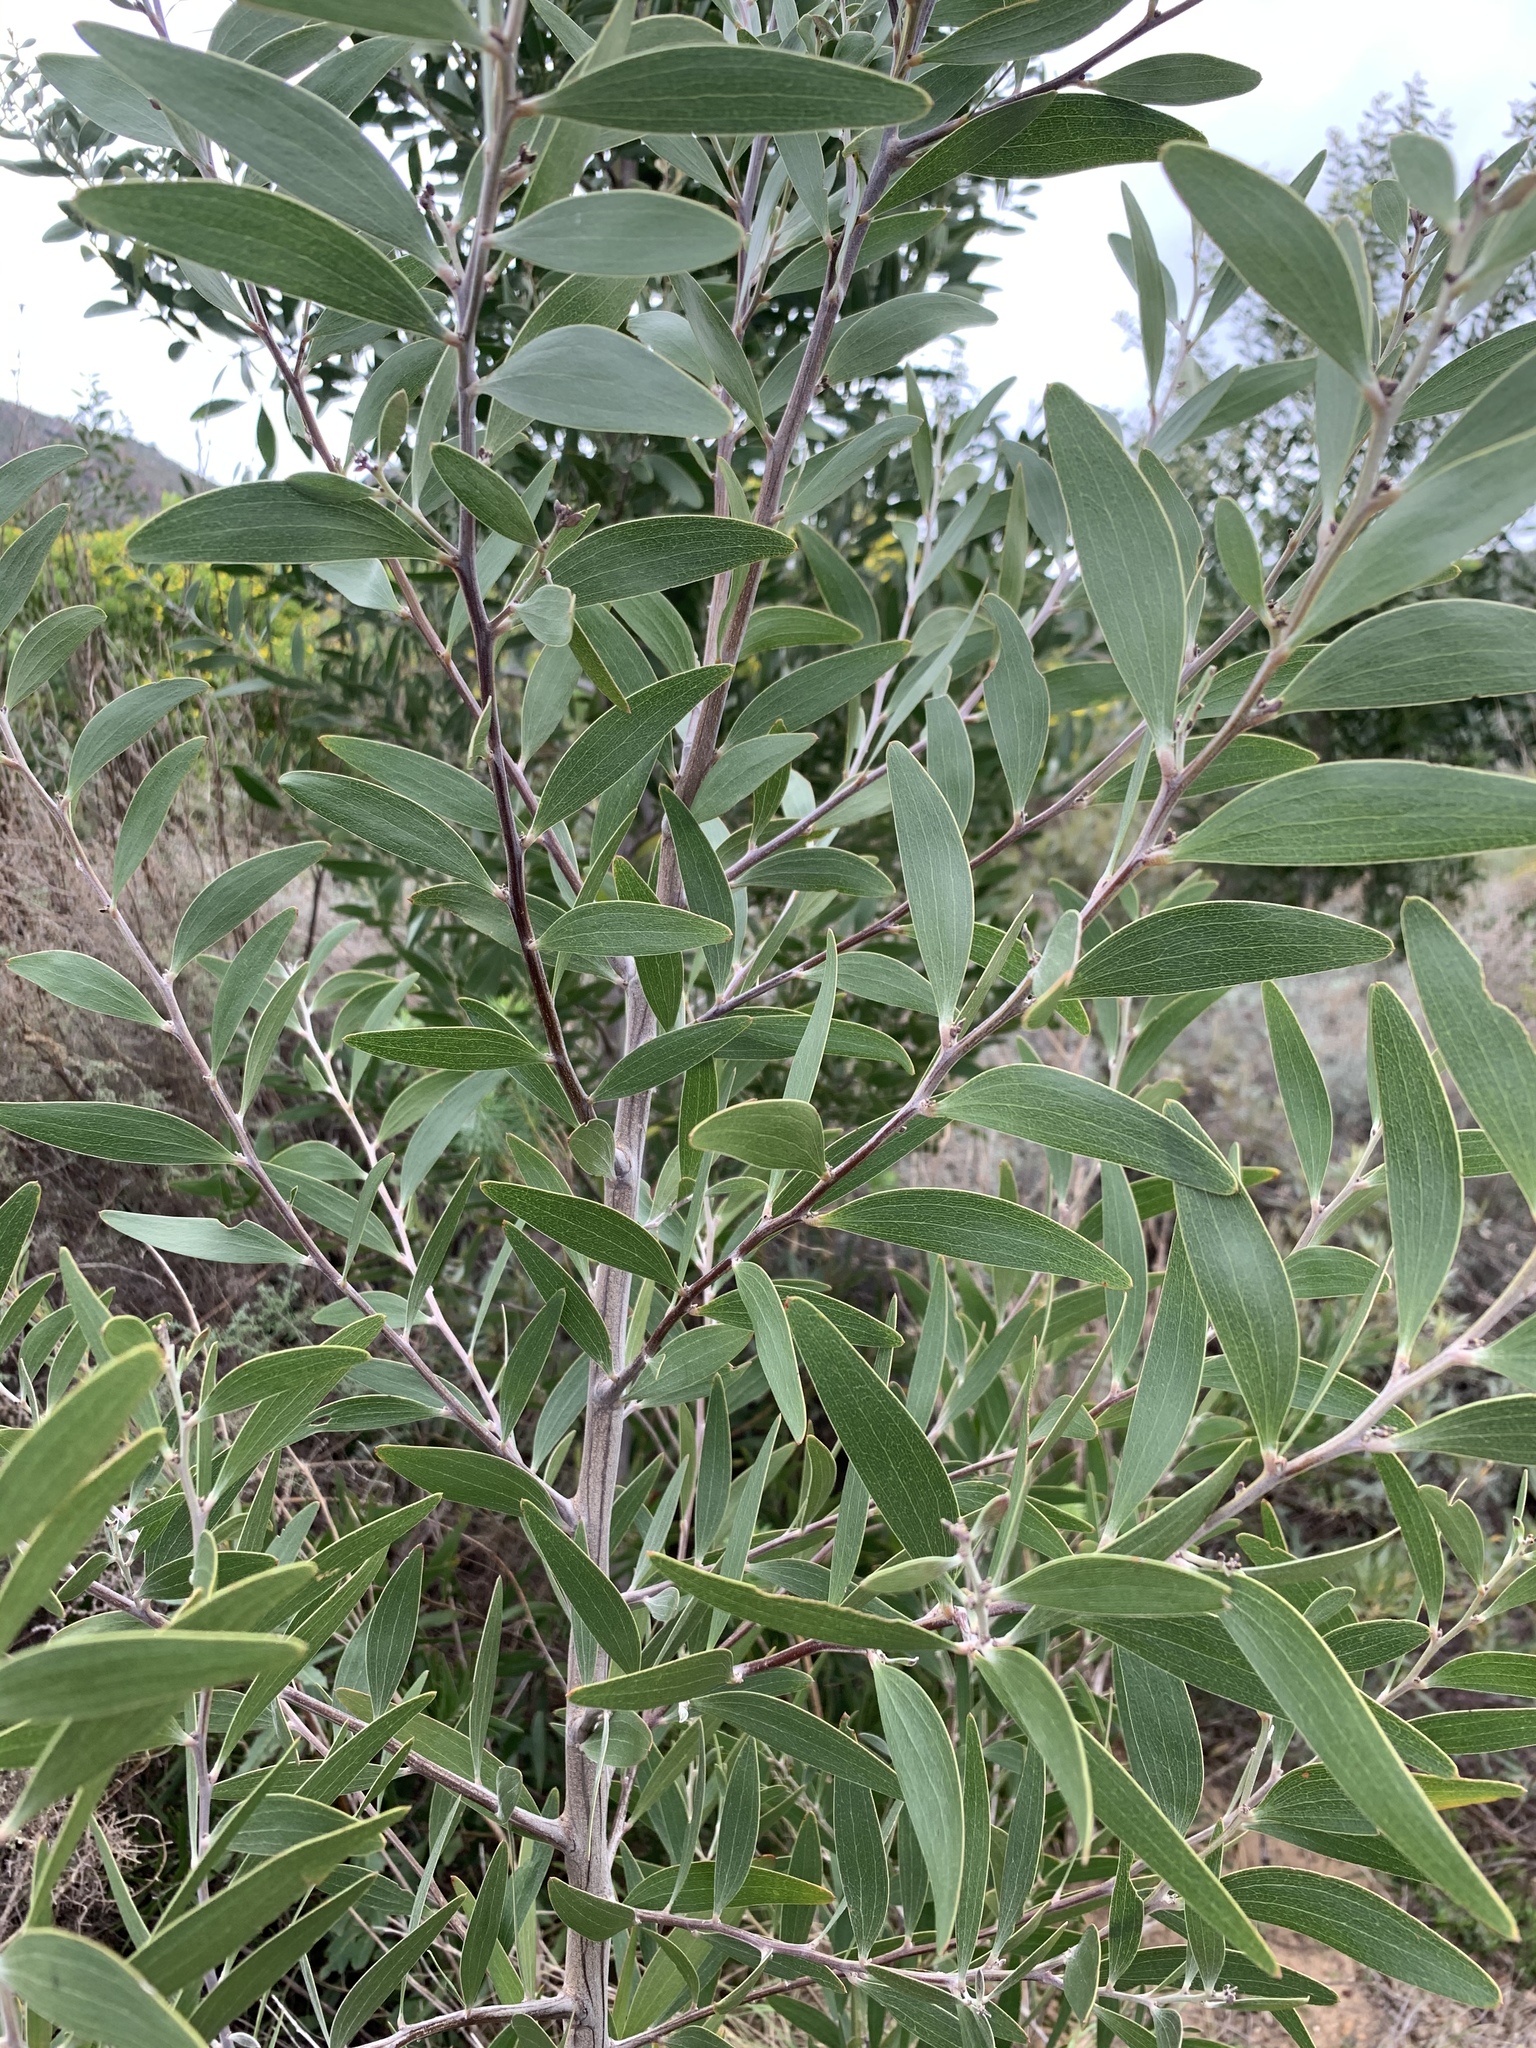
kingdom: Plantae
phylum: Tracheophyta
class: Magnoliopsida
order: Fabales
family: Fabaceae
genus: Acacia
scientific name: Acacia melanoxylon
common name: Blackwood
